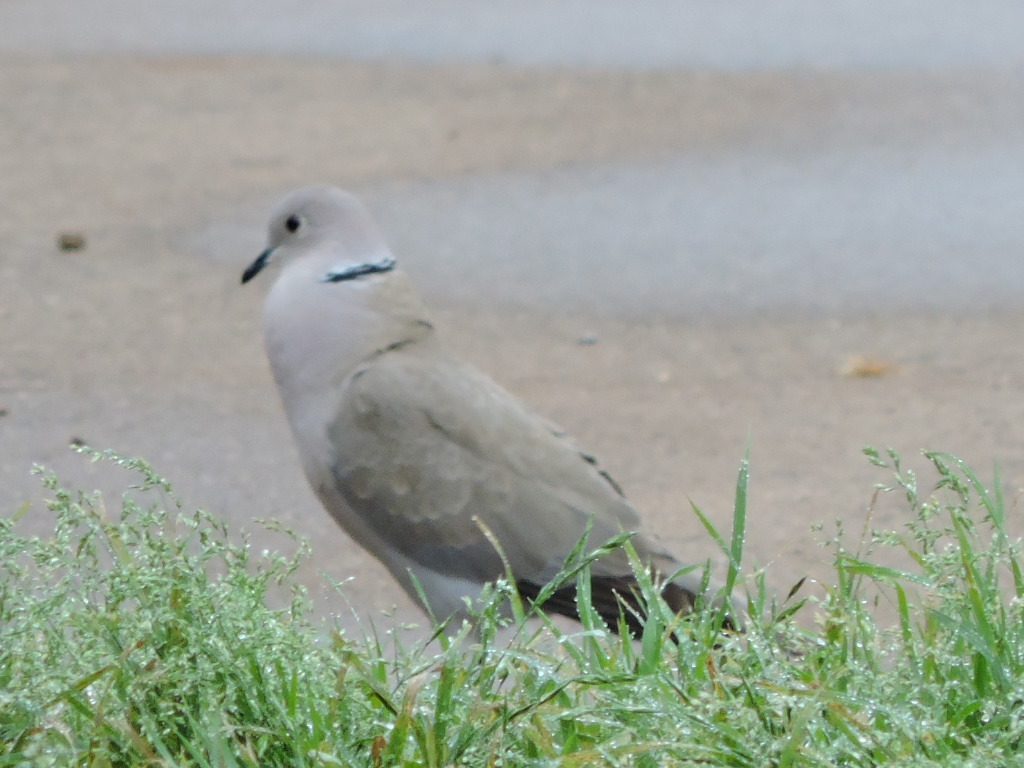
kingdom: Animalia
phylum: Chordata
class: Aves
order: Columbiformes
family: Columbidae
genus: Streptopelia
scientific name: Streptopelia decaocto
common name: Eurasian collared dove
